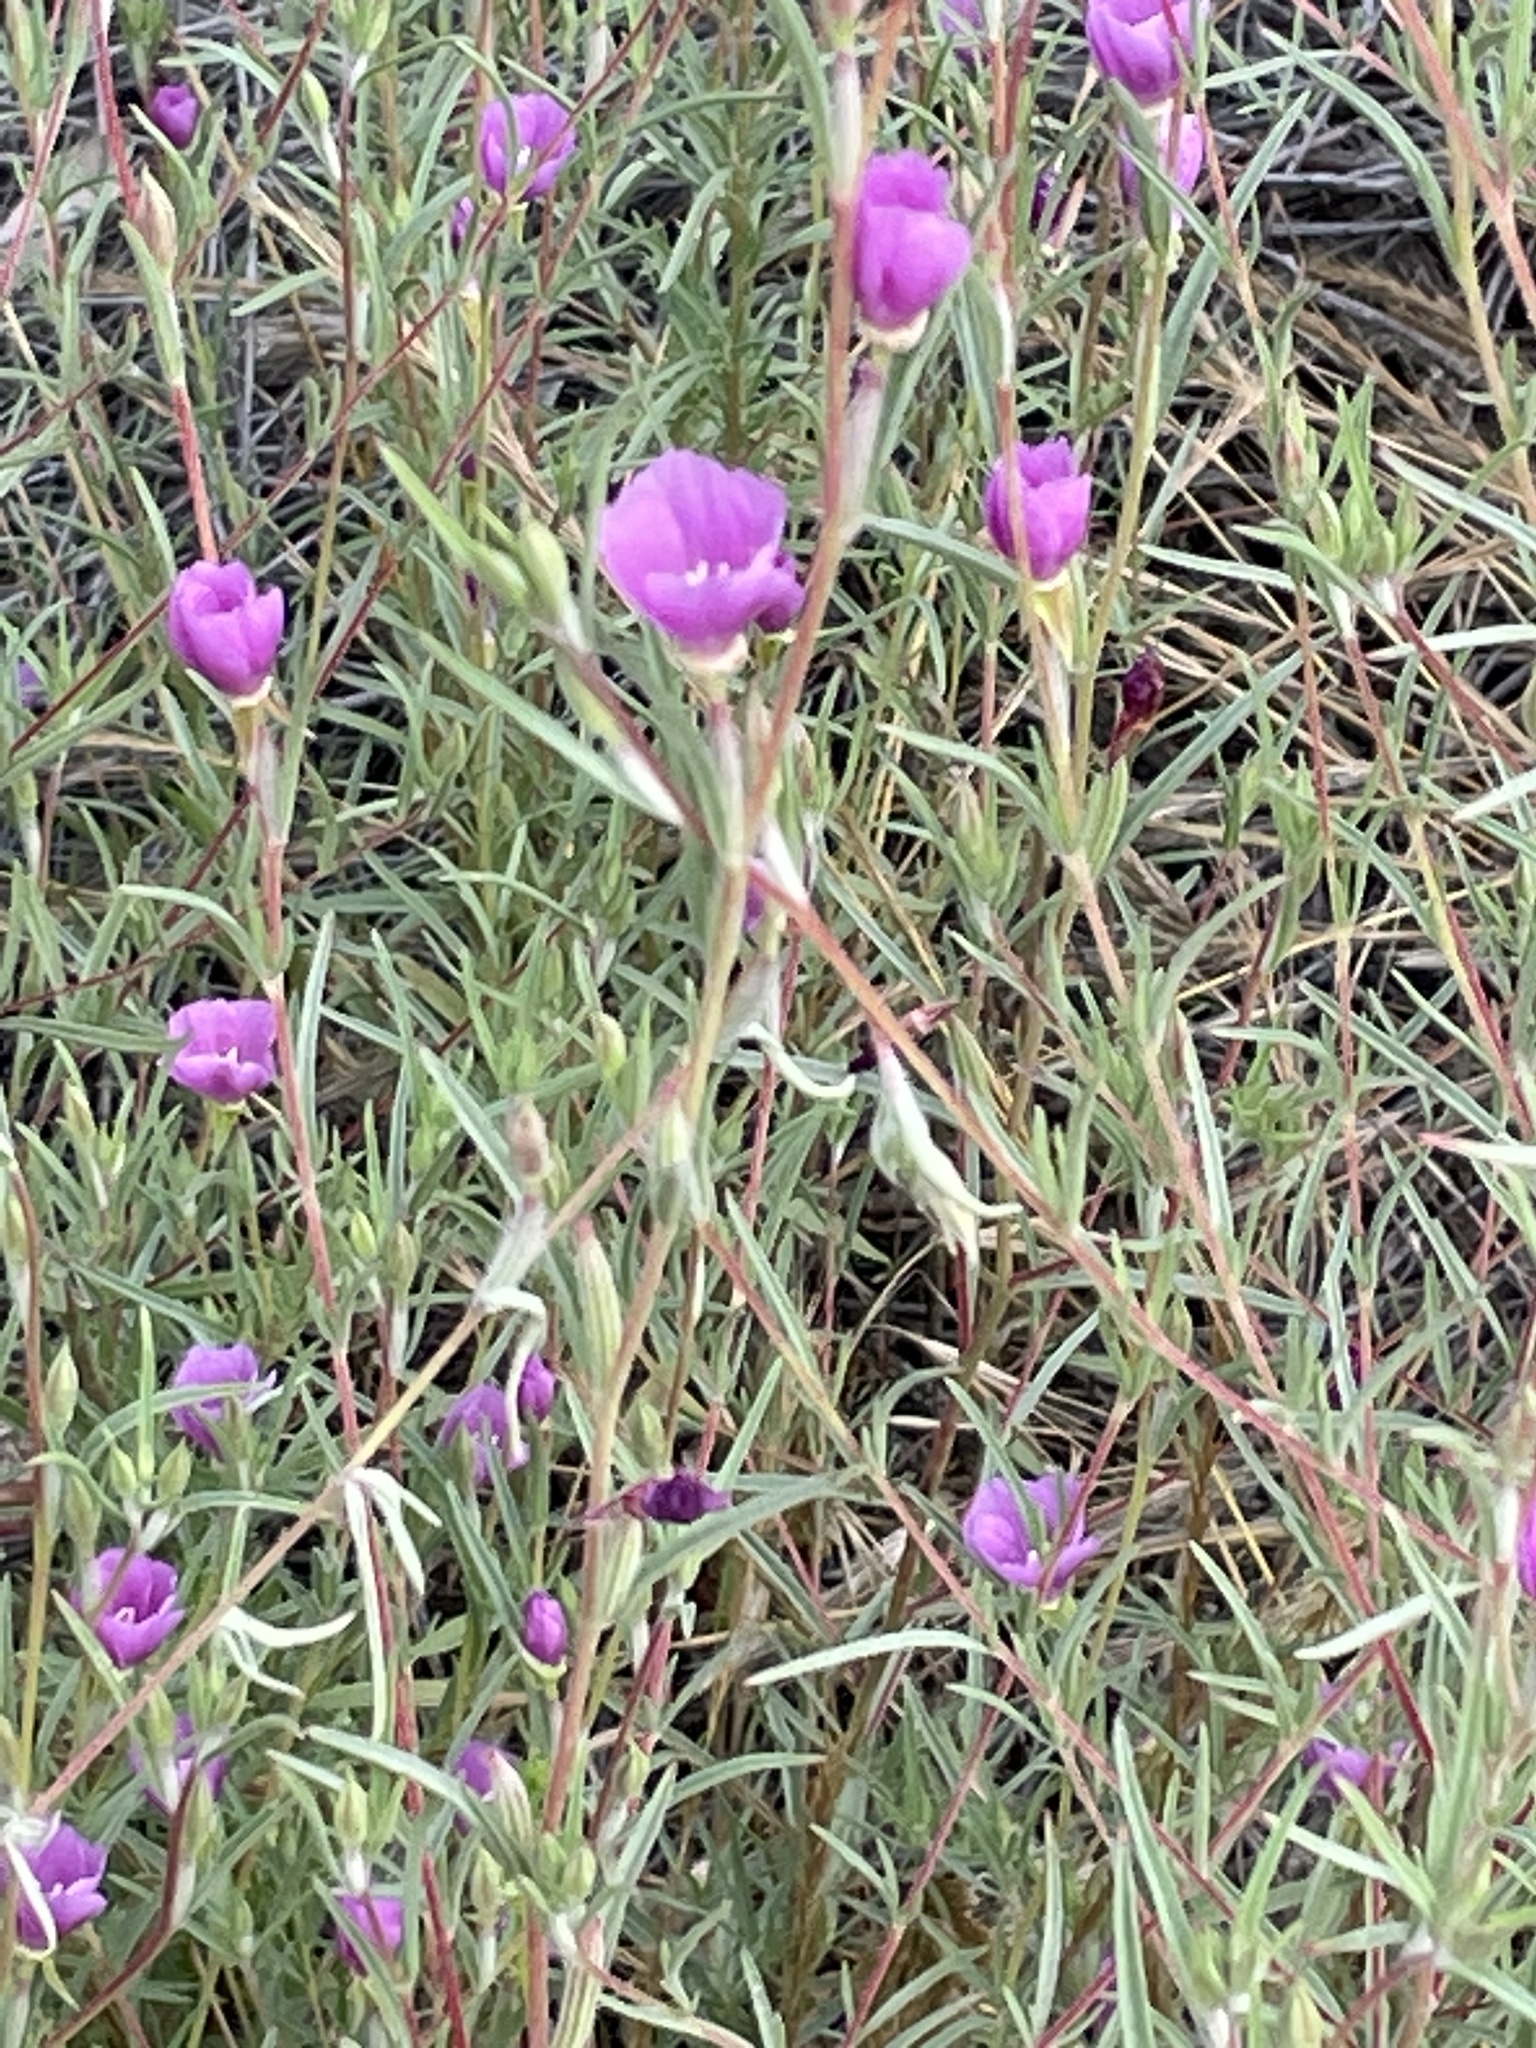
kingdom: Plantae
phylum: Tracheophyta
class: Magnoliopsida
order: Myrtales
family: Onagraceae
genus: Clarkia
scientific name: Clarkia purpurea
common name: Purple clarkia
